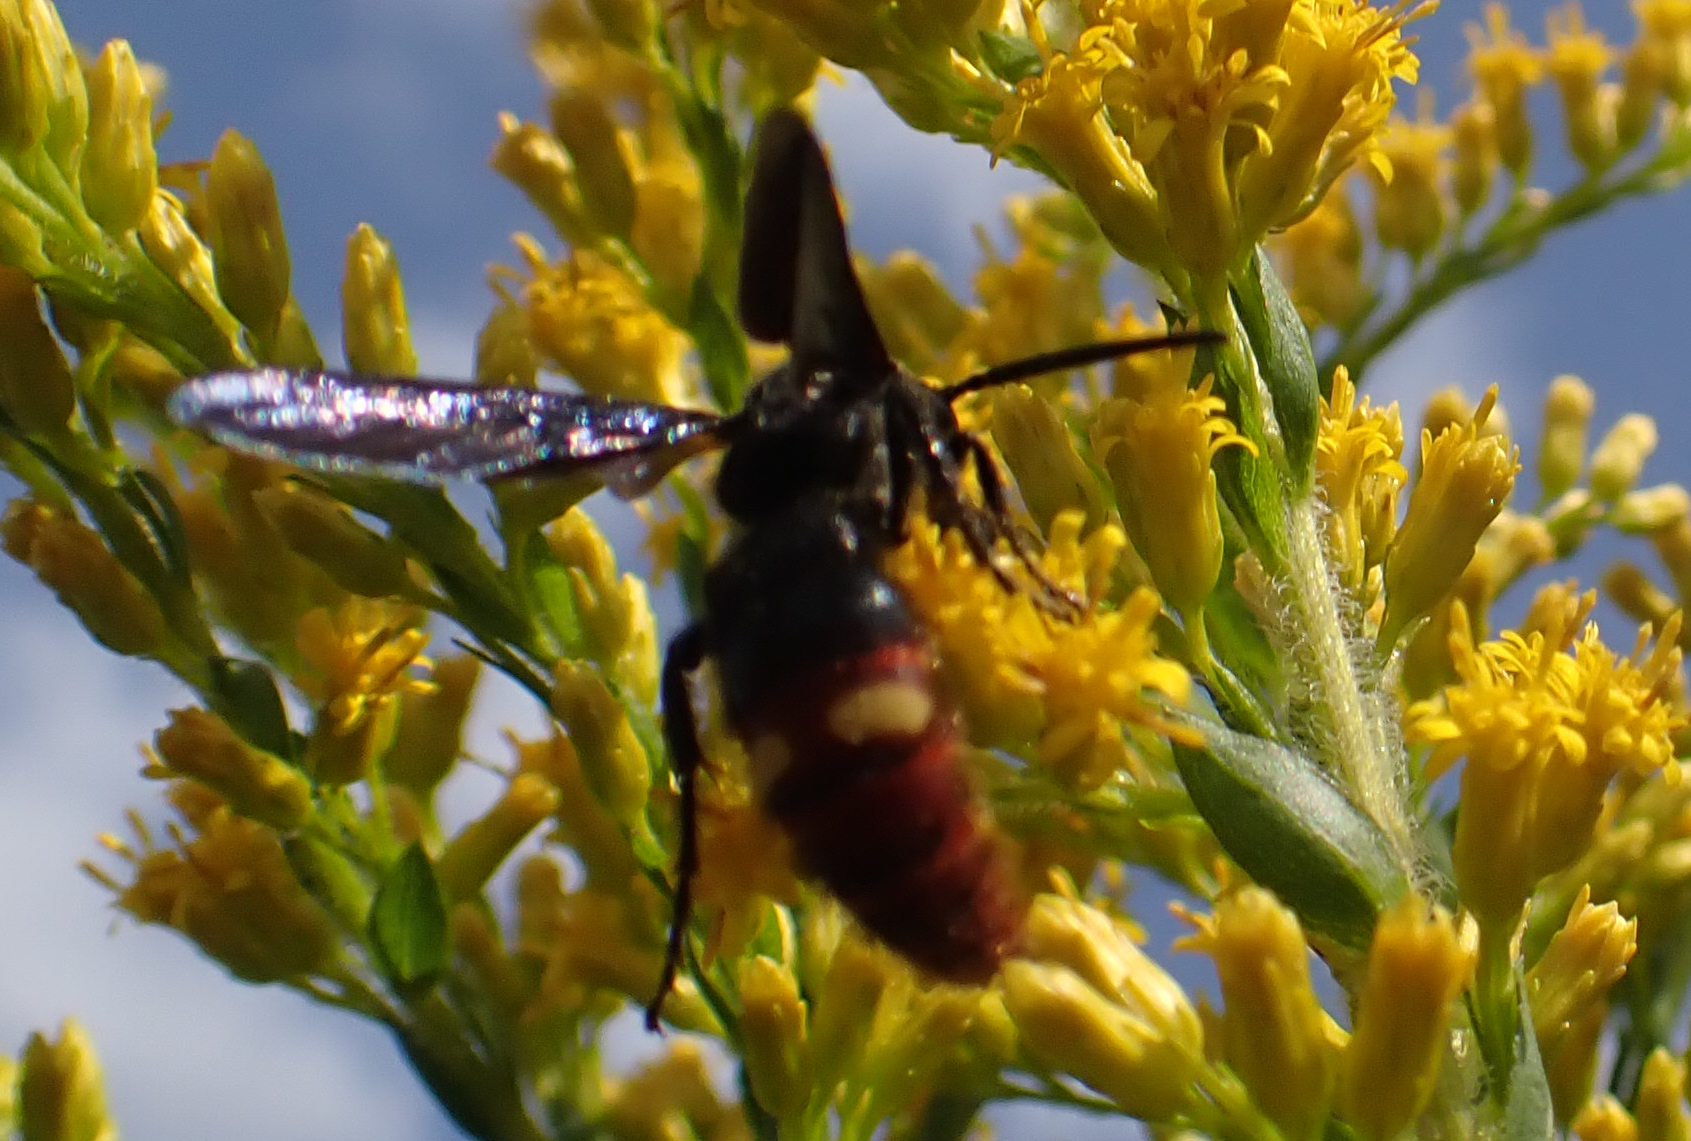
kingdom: Animalia
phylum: Arthropoda
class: Insecta
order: Hymenoptera
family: Scoliidae
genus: Scolia
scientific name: Scolia dubia
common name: Blue-winged scoliid wasp
